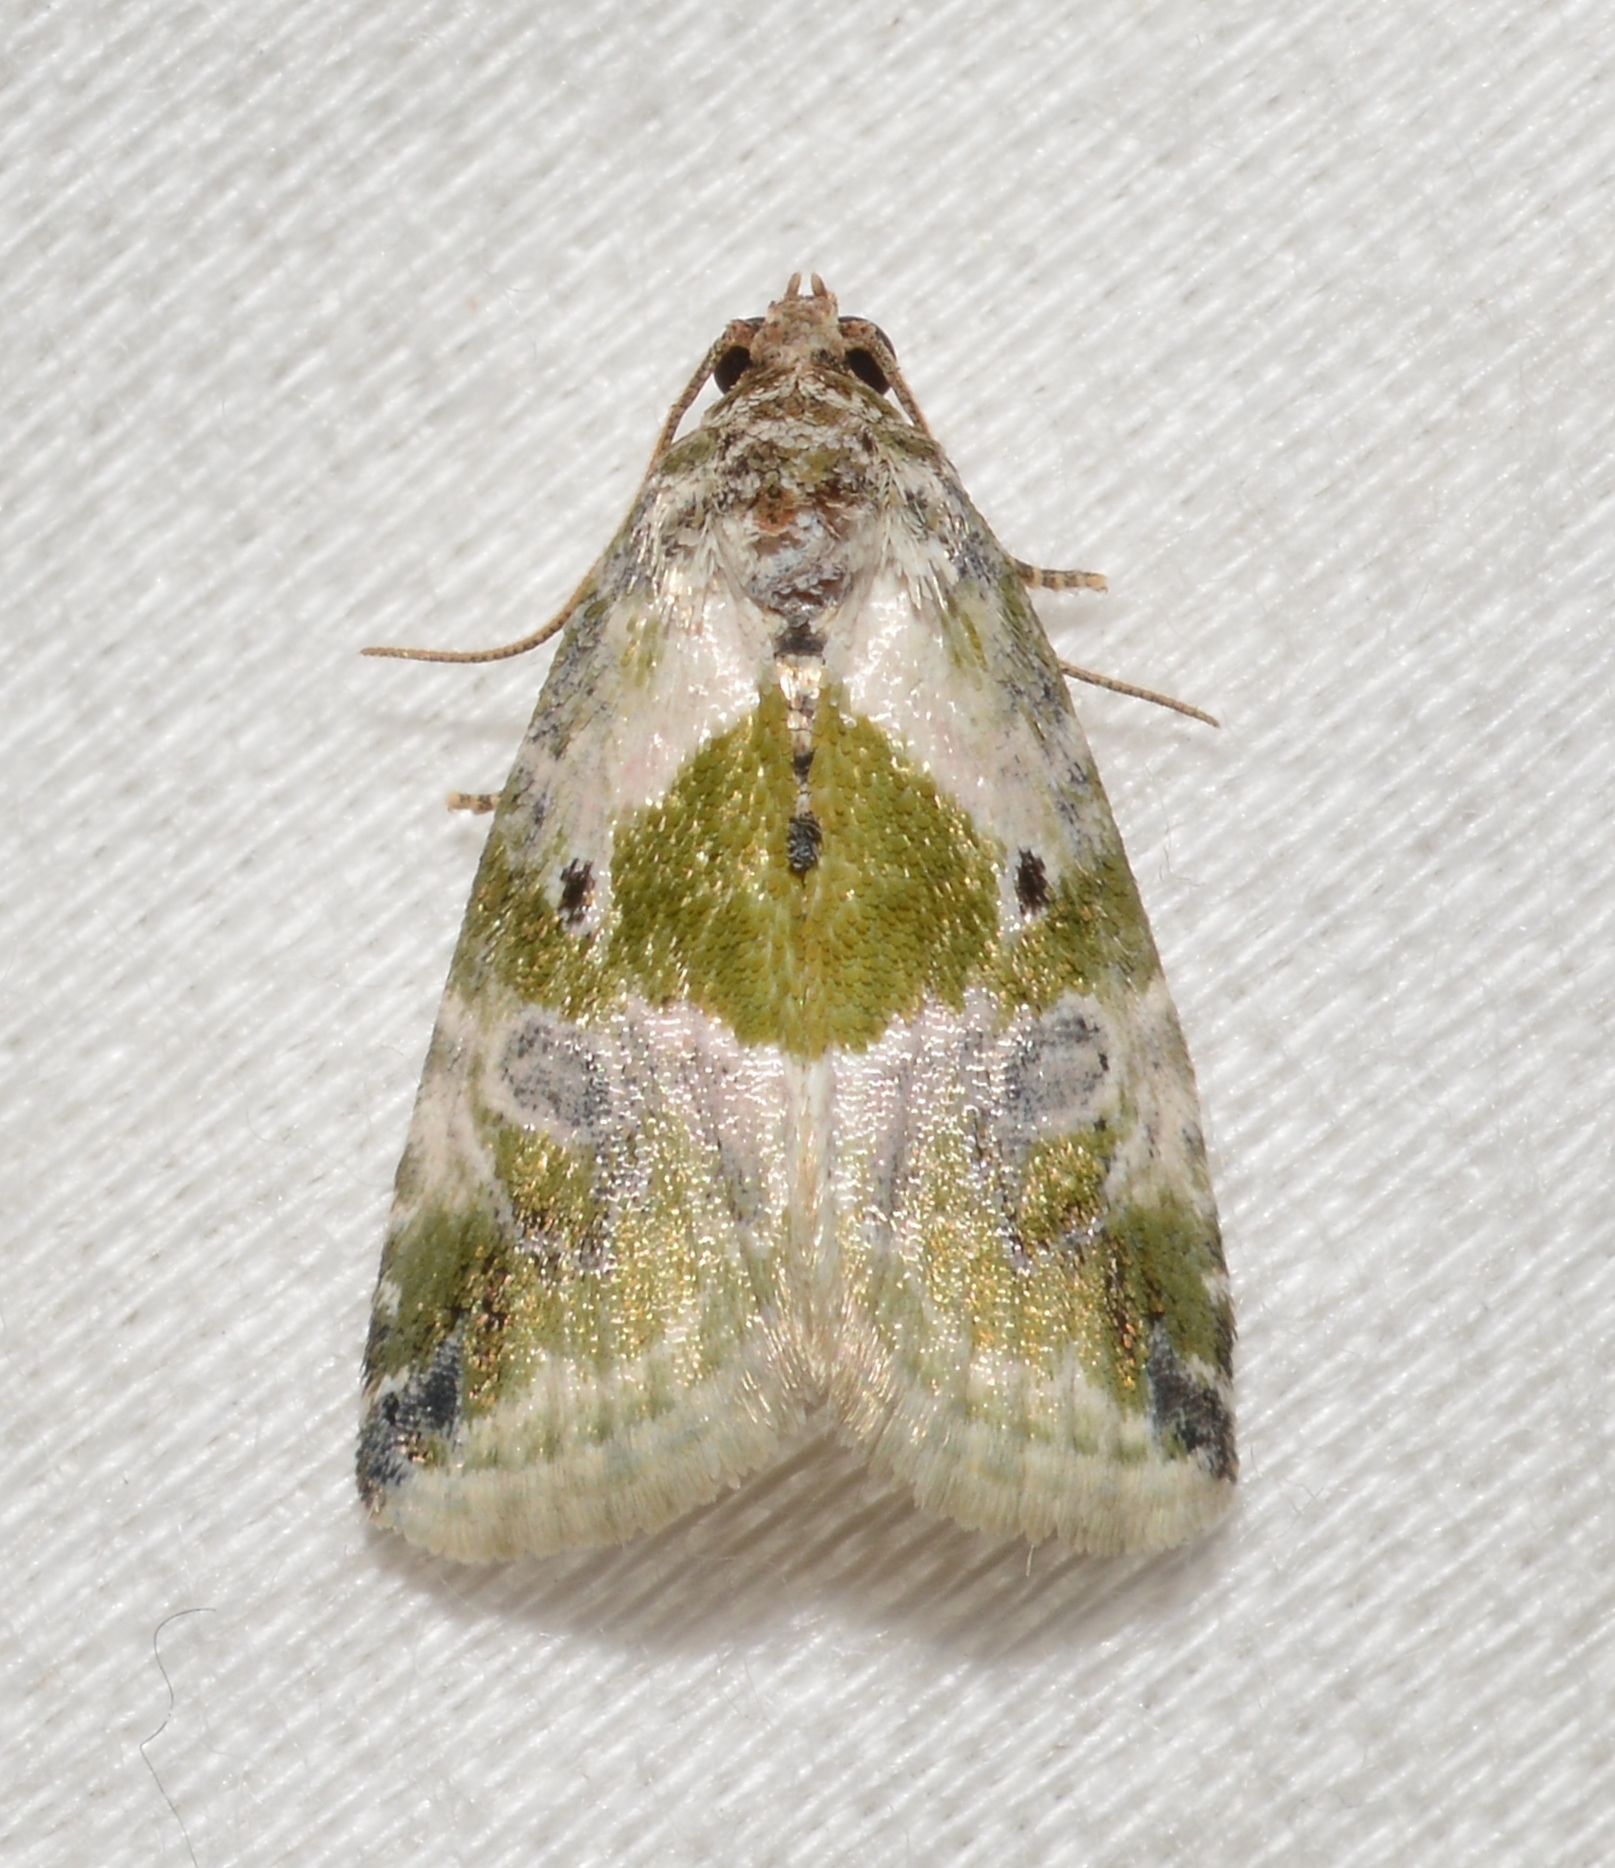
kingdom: Animalia
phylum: Arthropoda
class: Insecta
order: Lepidoptera
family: Noctuidae
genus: Maliattha
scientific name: Maliattha synochitis
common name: Black-dotted glyph
